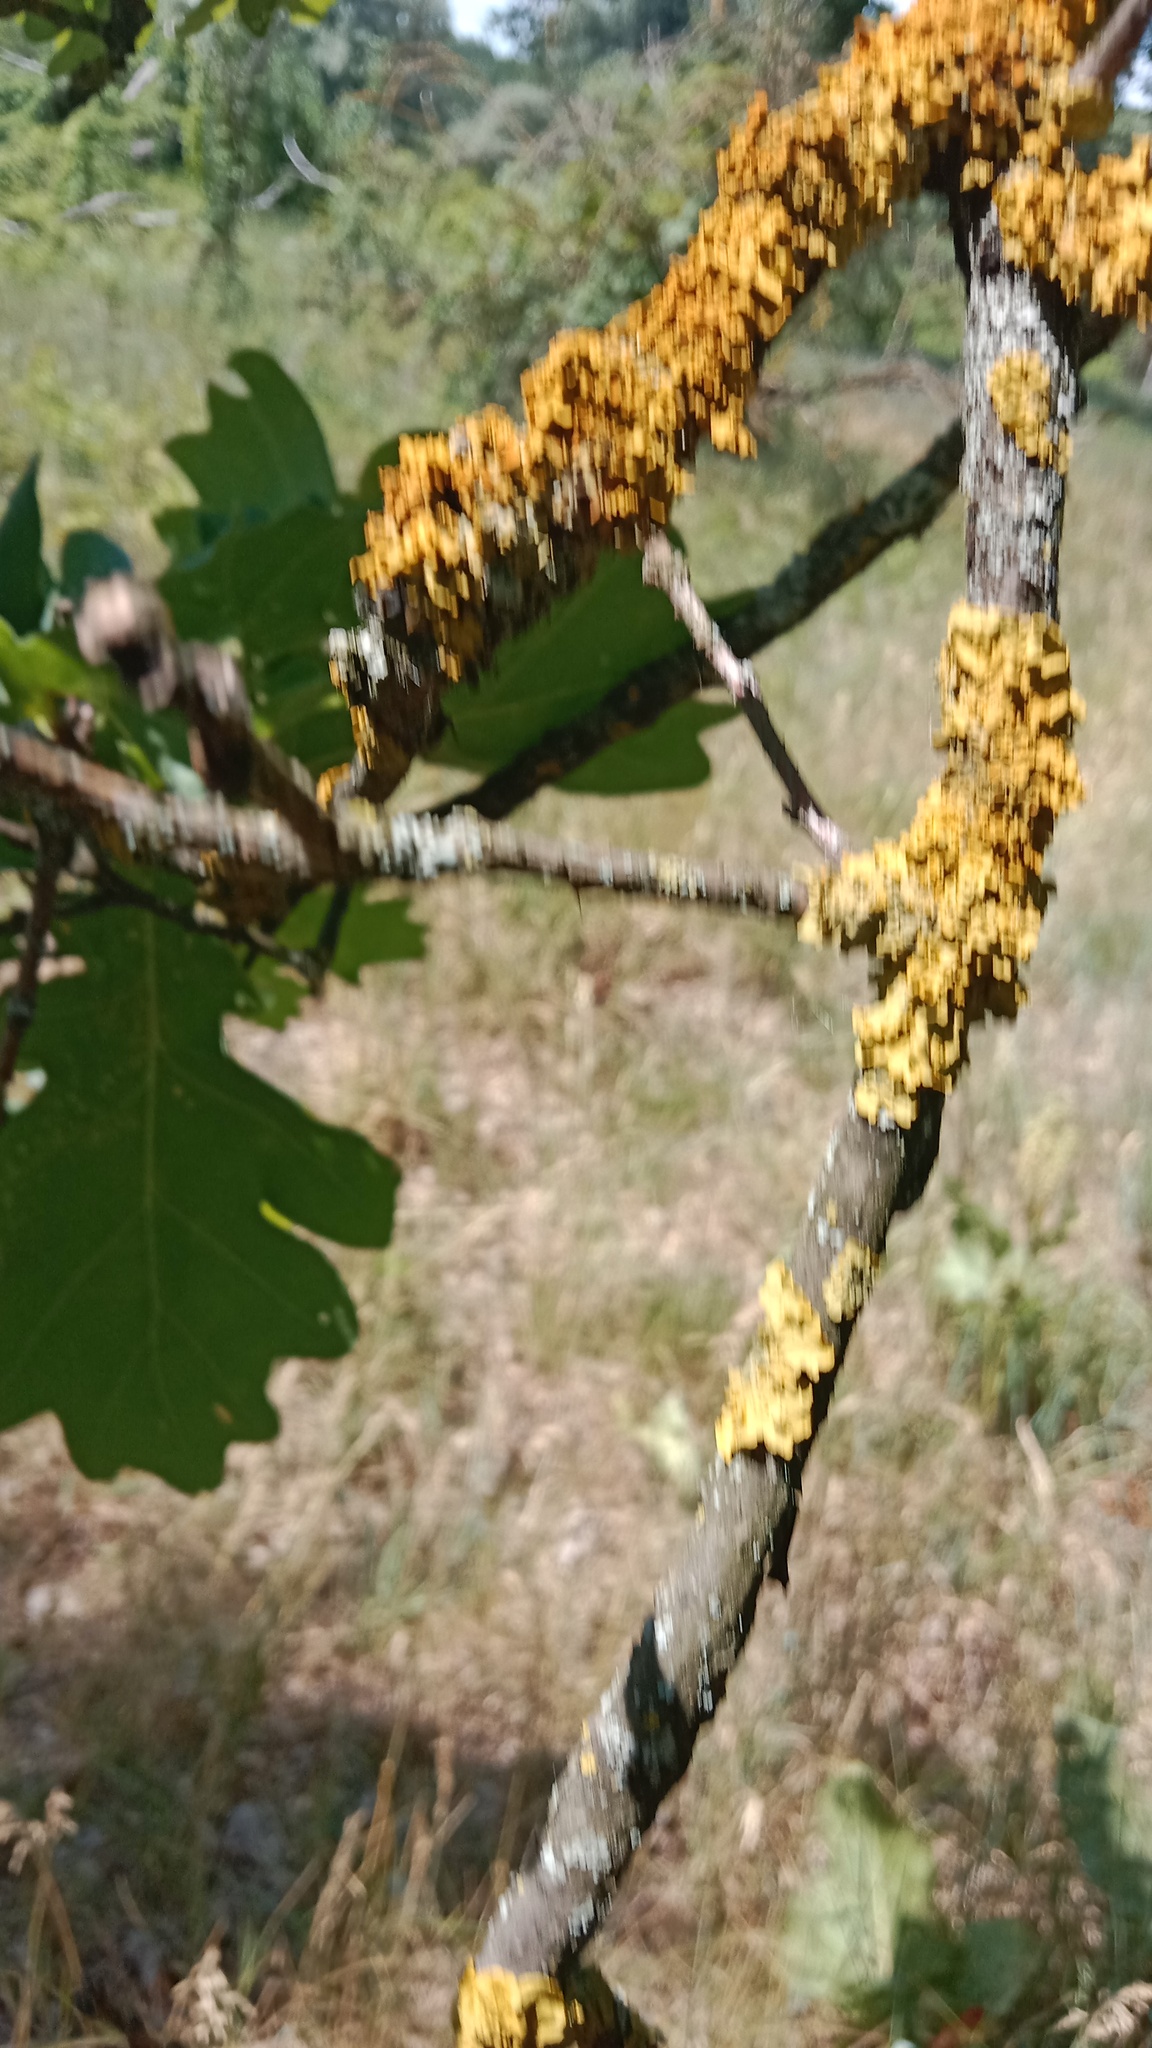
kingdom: Fungi
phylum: Ascomycota
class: Lecanoromycetes
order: Teloschistales
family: Teloschistaceae
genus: Xanthoria
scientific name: Xanthoria parietina
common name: Common orange lichen
